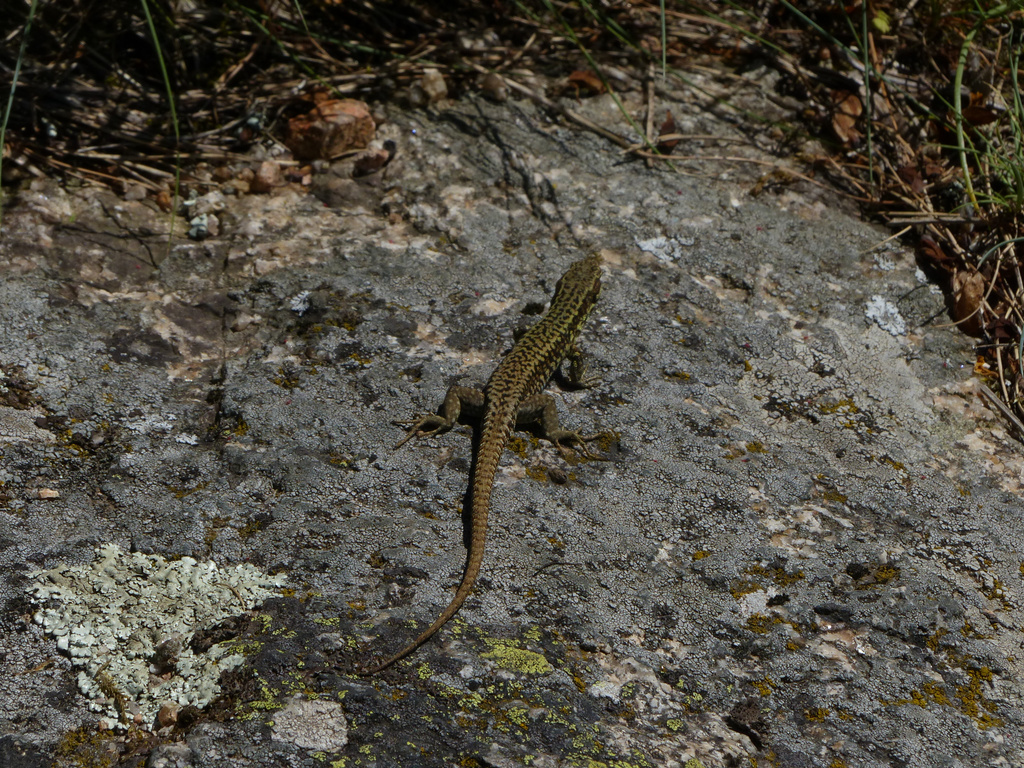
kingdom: Animalia
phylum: Chordata
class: Squamata
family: Lacertidae
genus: Podarcis
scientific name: Podarcis muralis
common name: Common wall lizard
